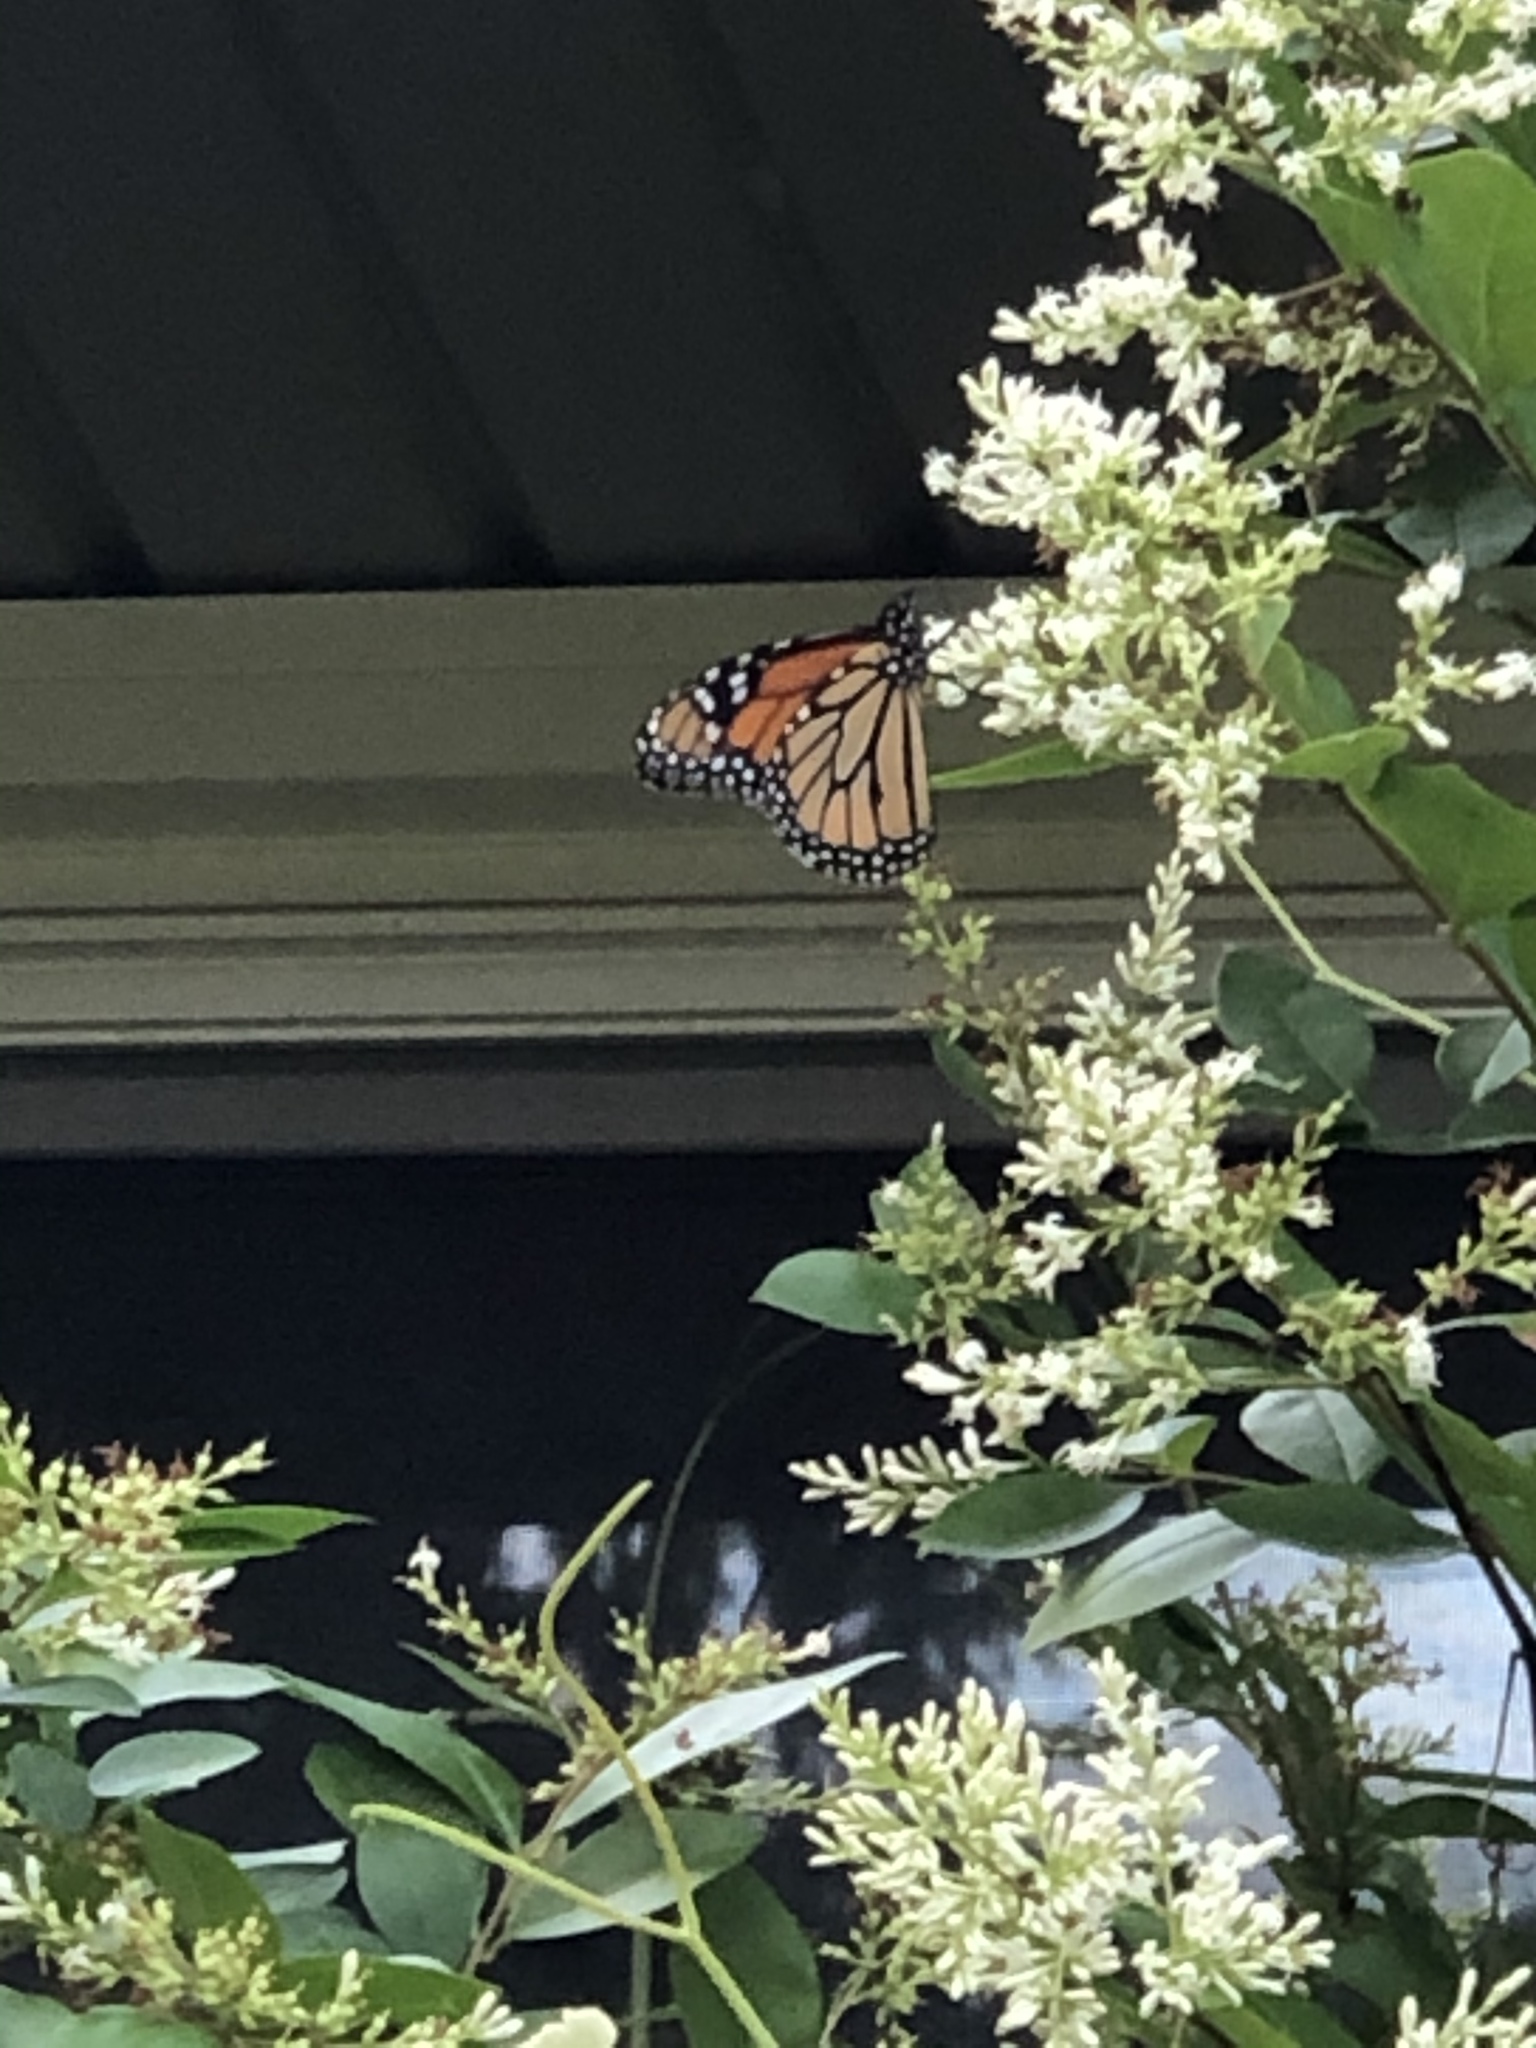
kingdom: Animalia
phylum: Arthropoda
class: Insecta
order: Lepidoptera
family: Nymphalidae
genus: Danaus
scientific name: Danaus plexippus
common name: Monarch
